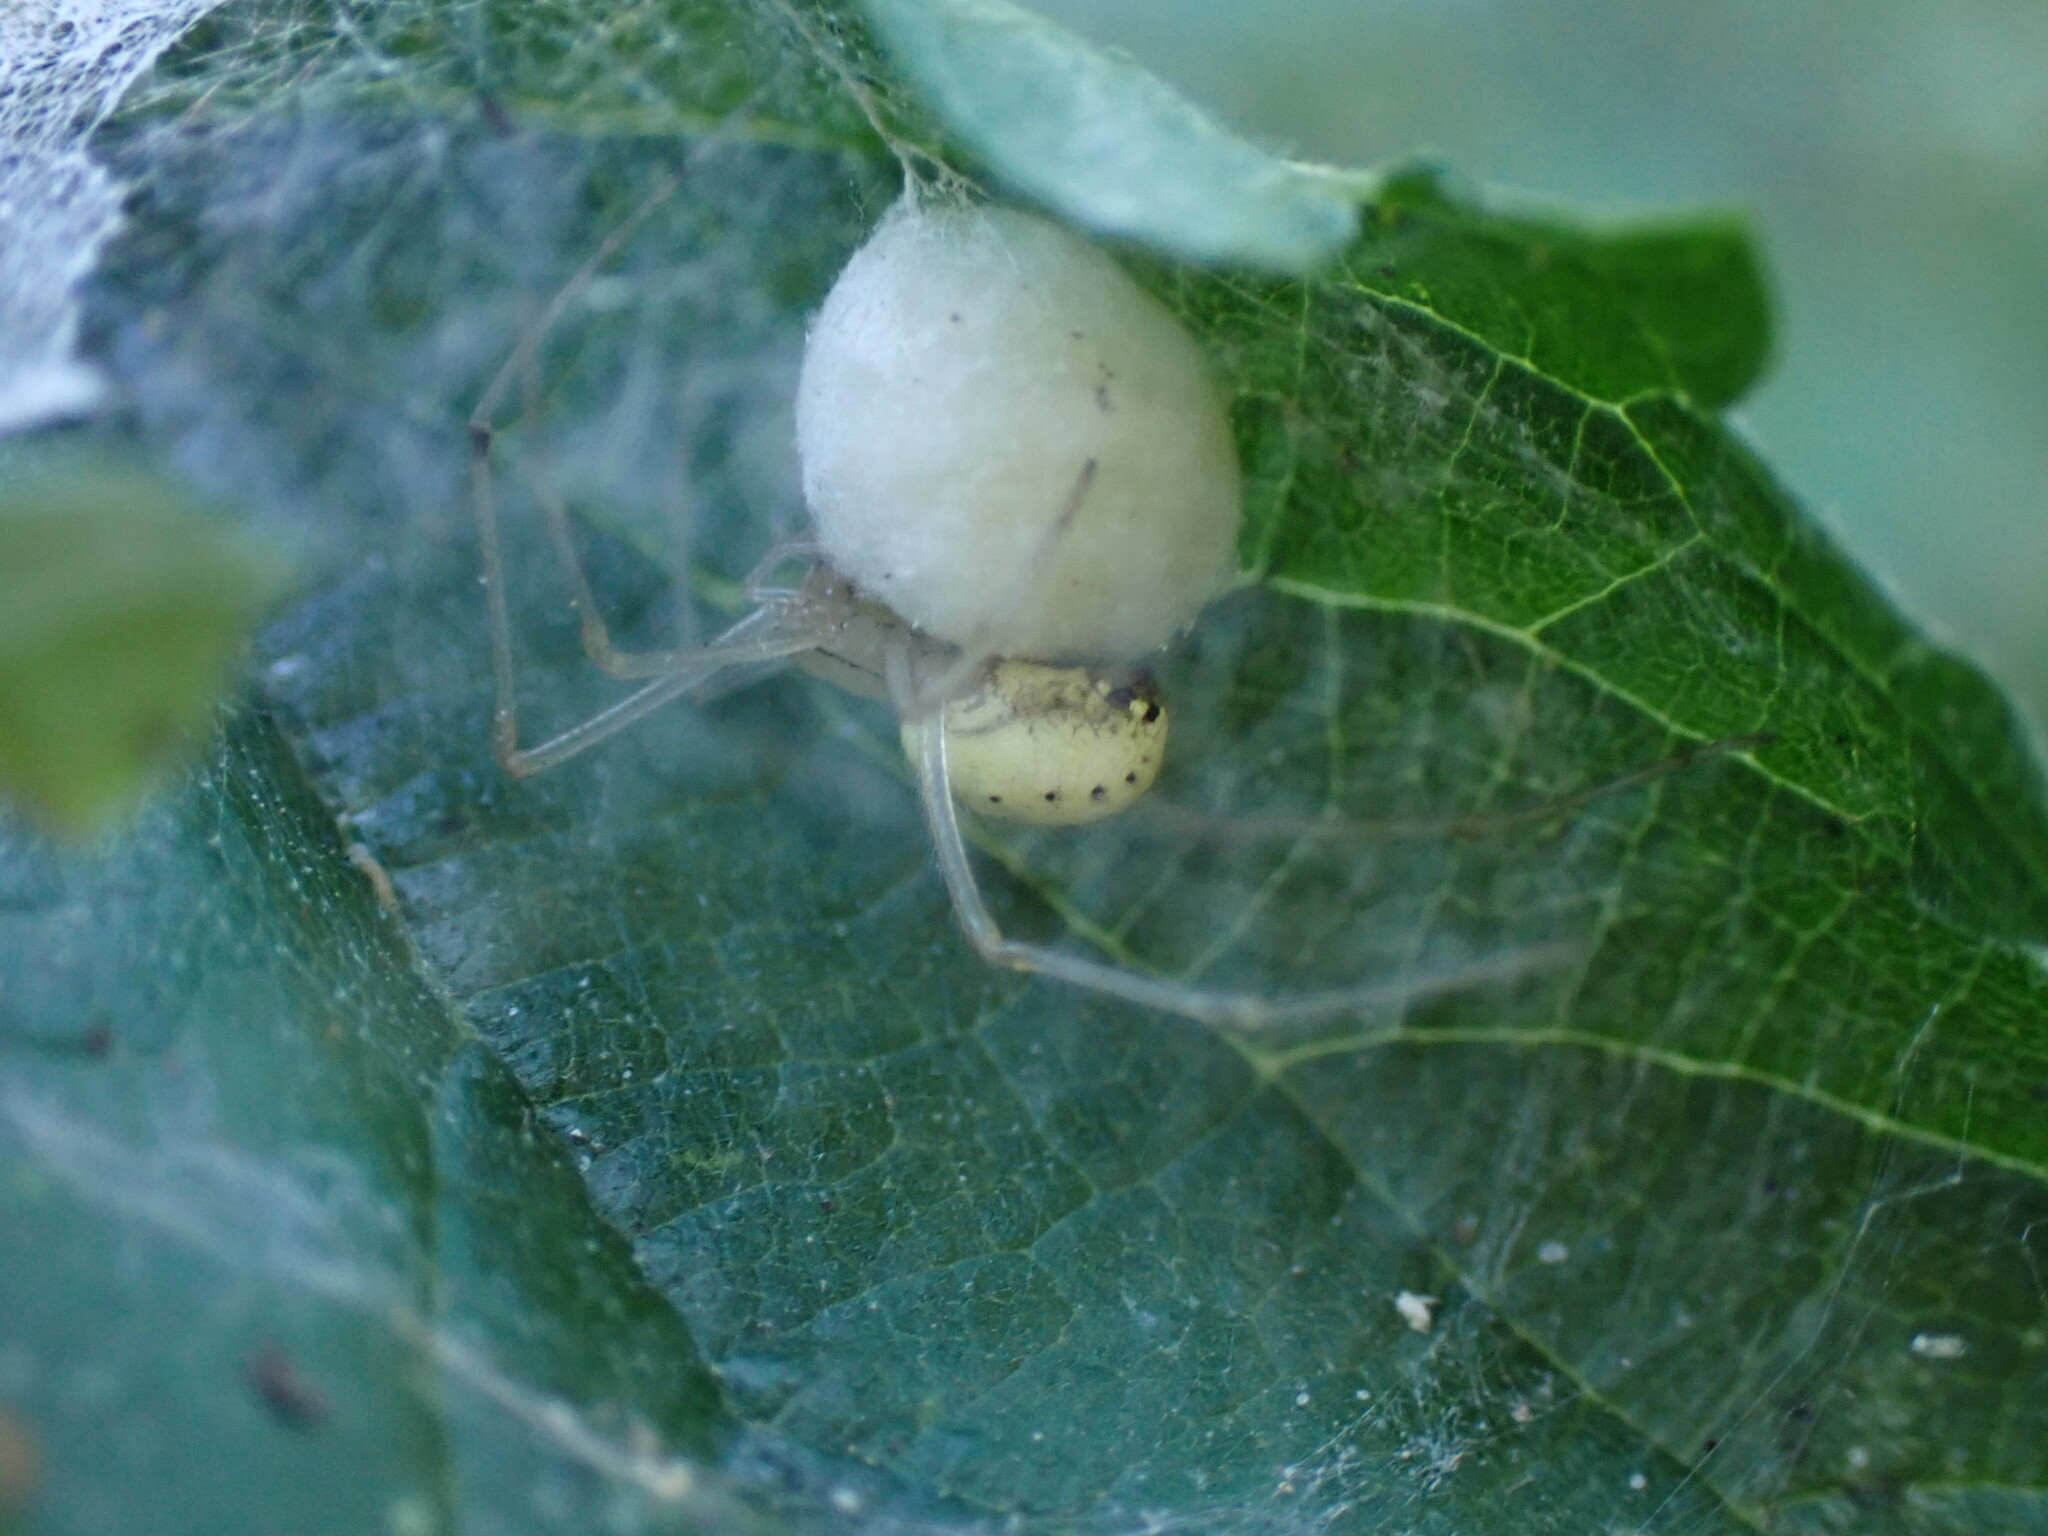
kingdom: Animalia
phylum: Arthropoda
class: Arachnida
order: Araneae
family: Theridiidae
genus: Enoplognatha
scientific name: Enoplognatha
